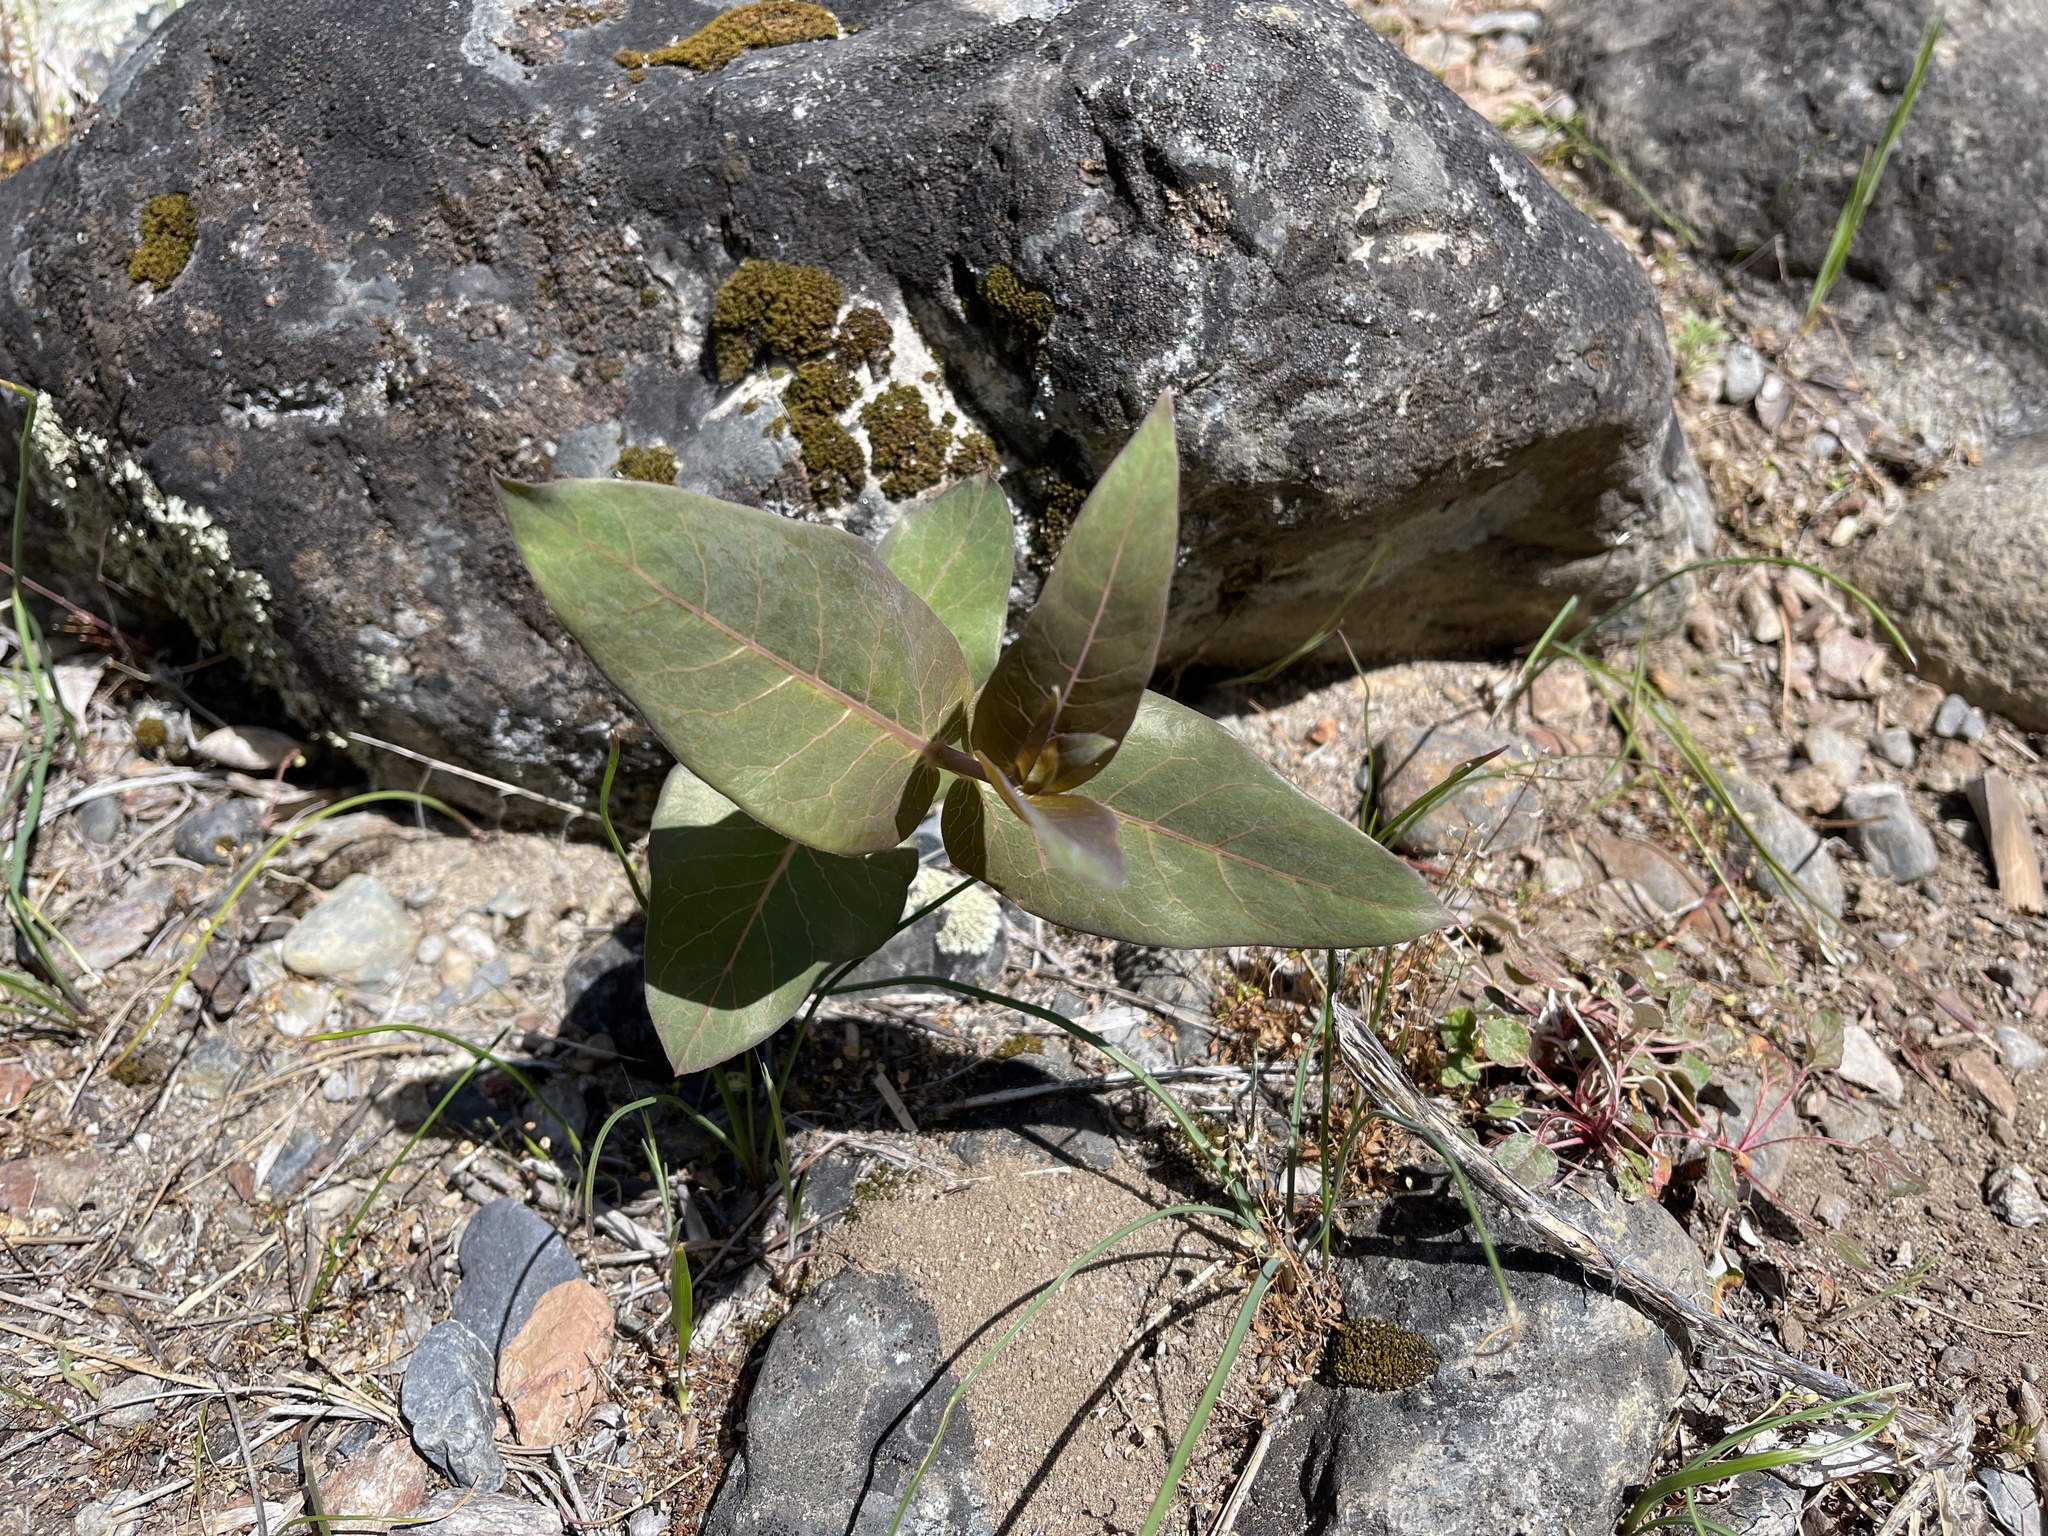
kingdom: Plantae
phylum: Tracheophyta
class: Magnoliopsida
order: Gentianales
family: Apocynaceae
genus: Asclepias
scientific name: Asclepias cordifolia
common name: Purple milkweed
